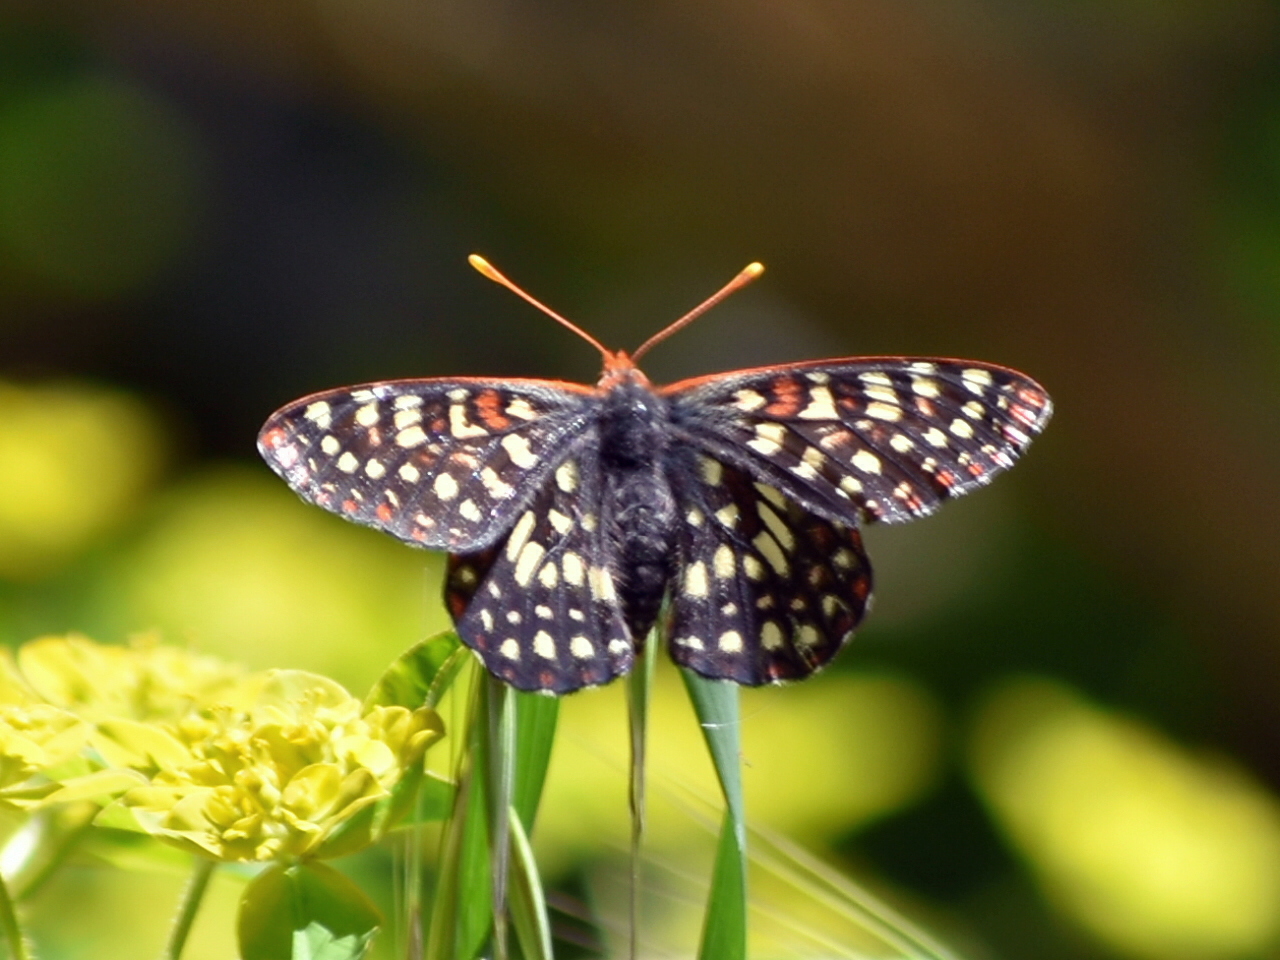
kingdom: Animalia
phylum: Arthropoda
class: Insecta
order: Lepidoptera
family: Nymphalidae
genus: Occidryas
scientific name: Occidryas chalcedona
